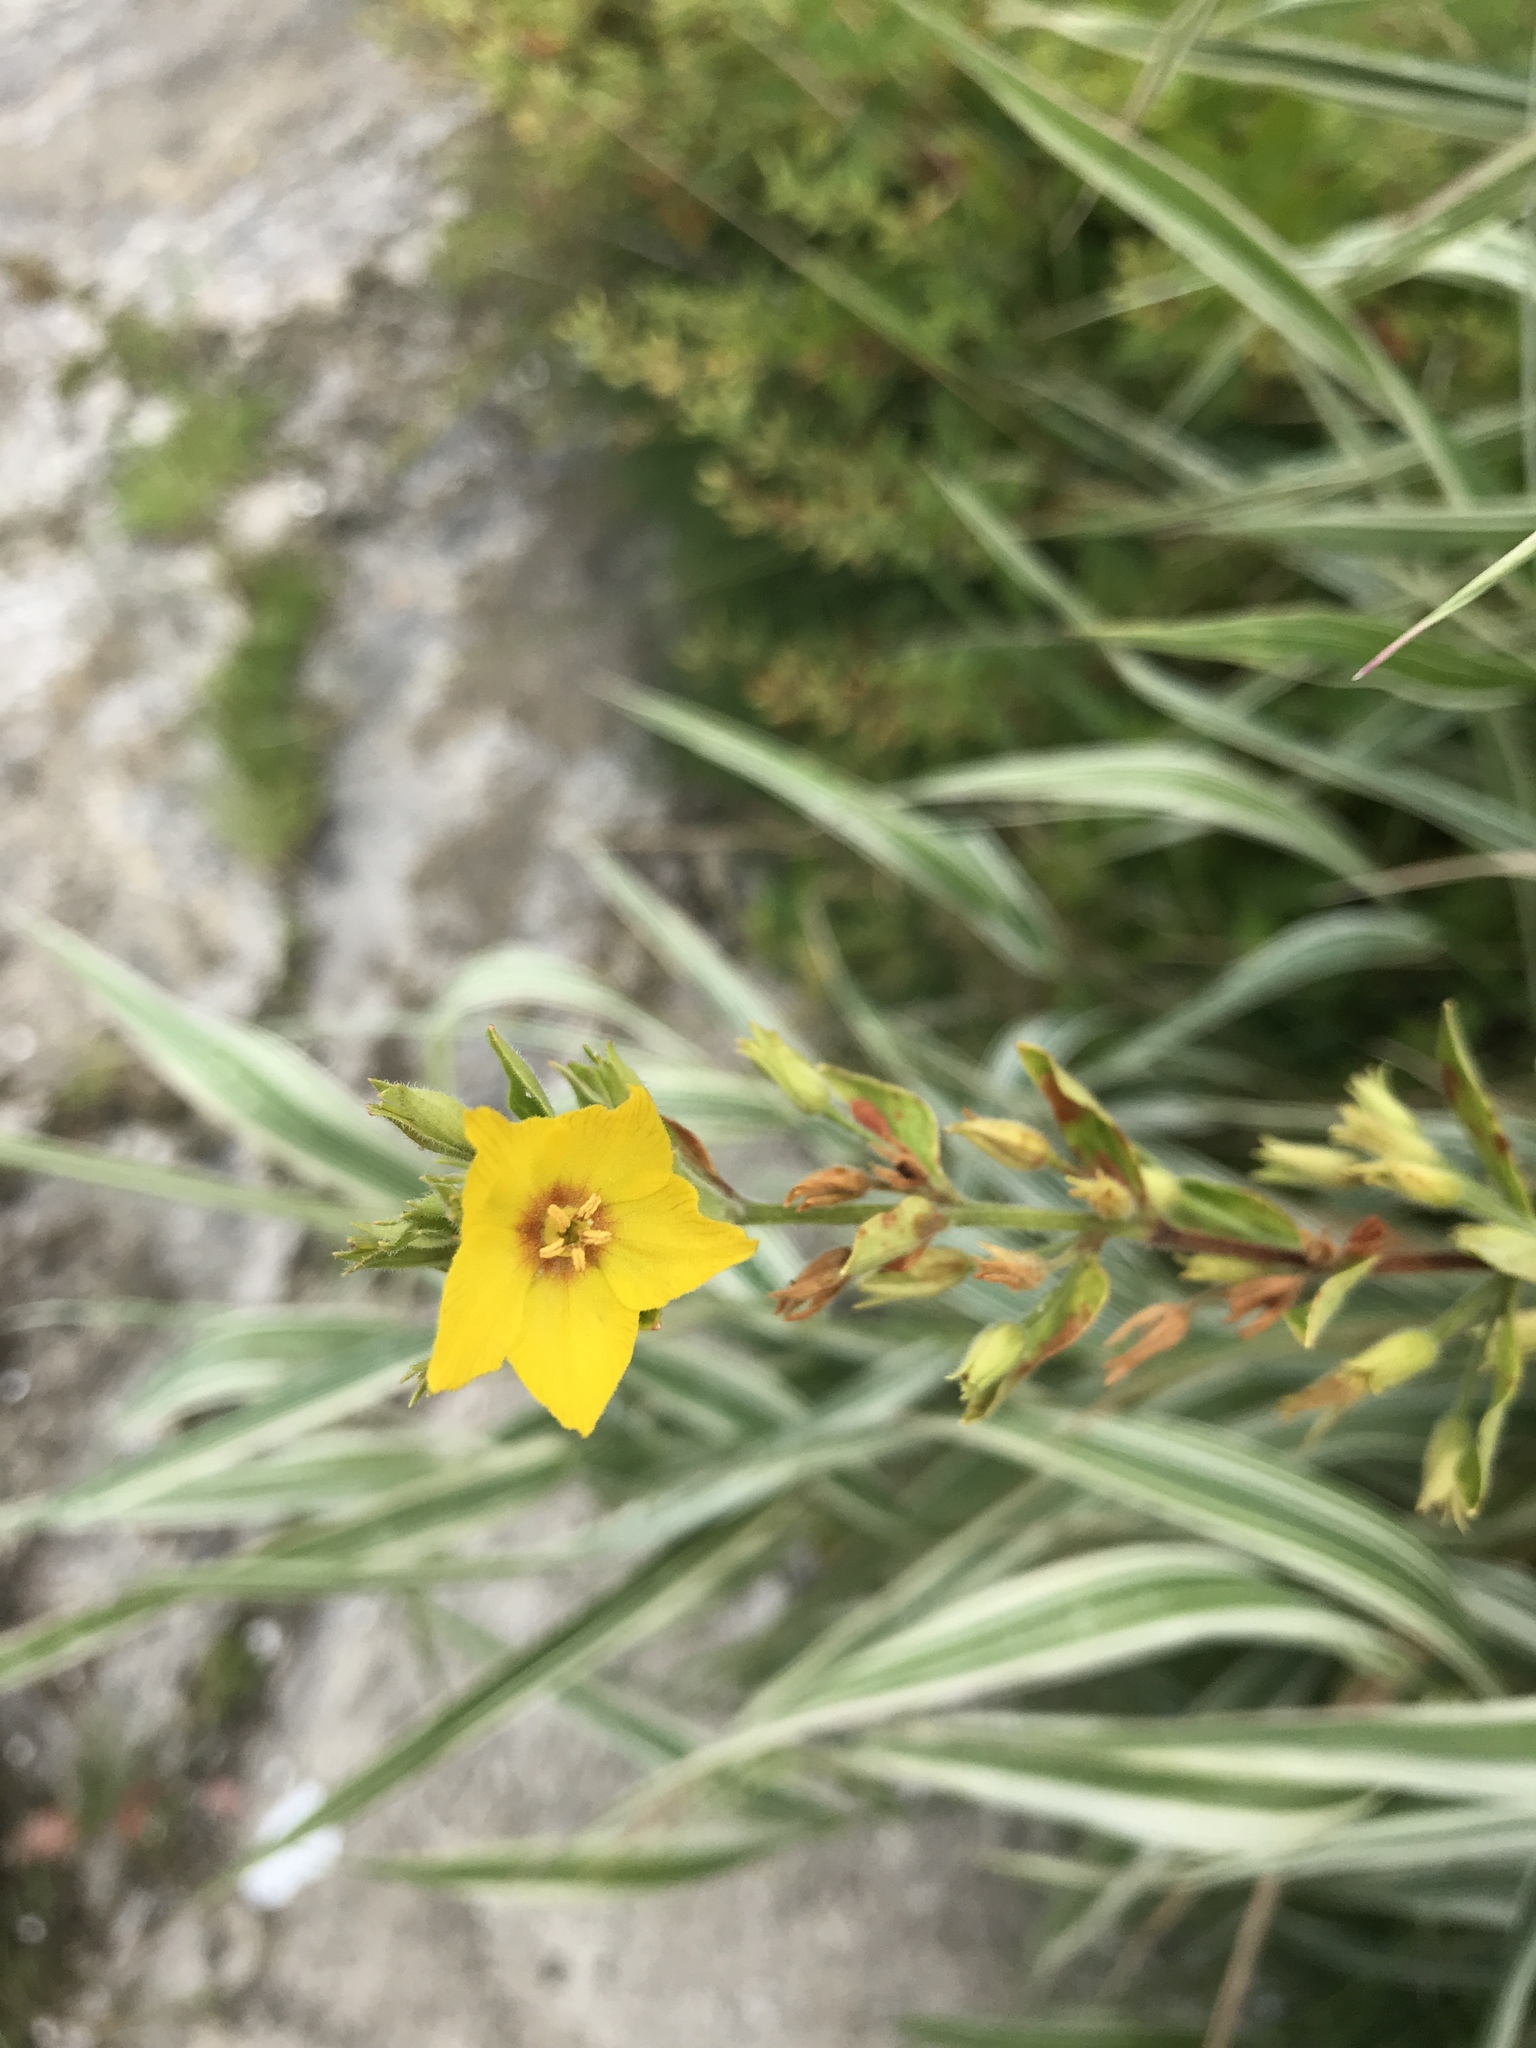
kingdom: Plantae
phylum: Tracheophyta
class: Magnoliopsida
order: Ericales
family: Primulaceae
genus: Lysimachia
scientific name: Lysimachia punctata
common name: Dotted loosestrife
